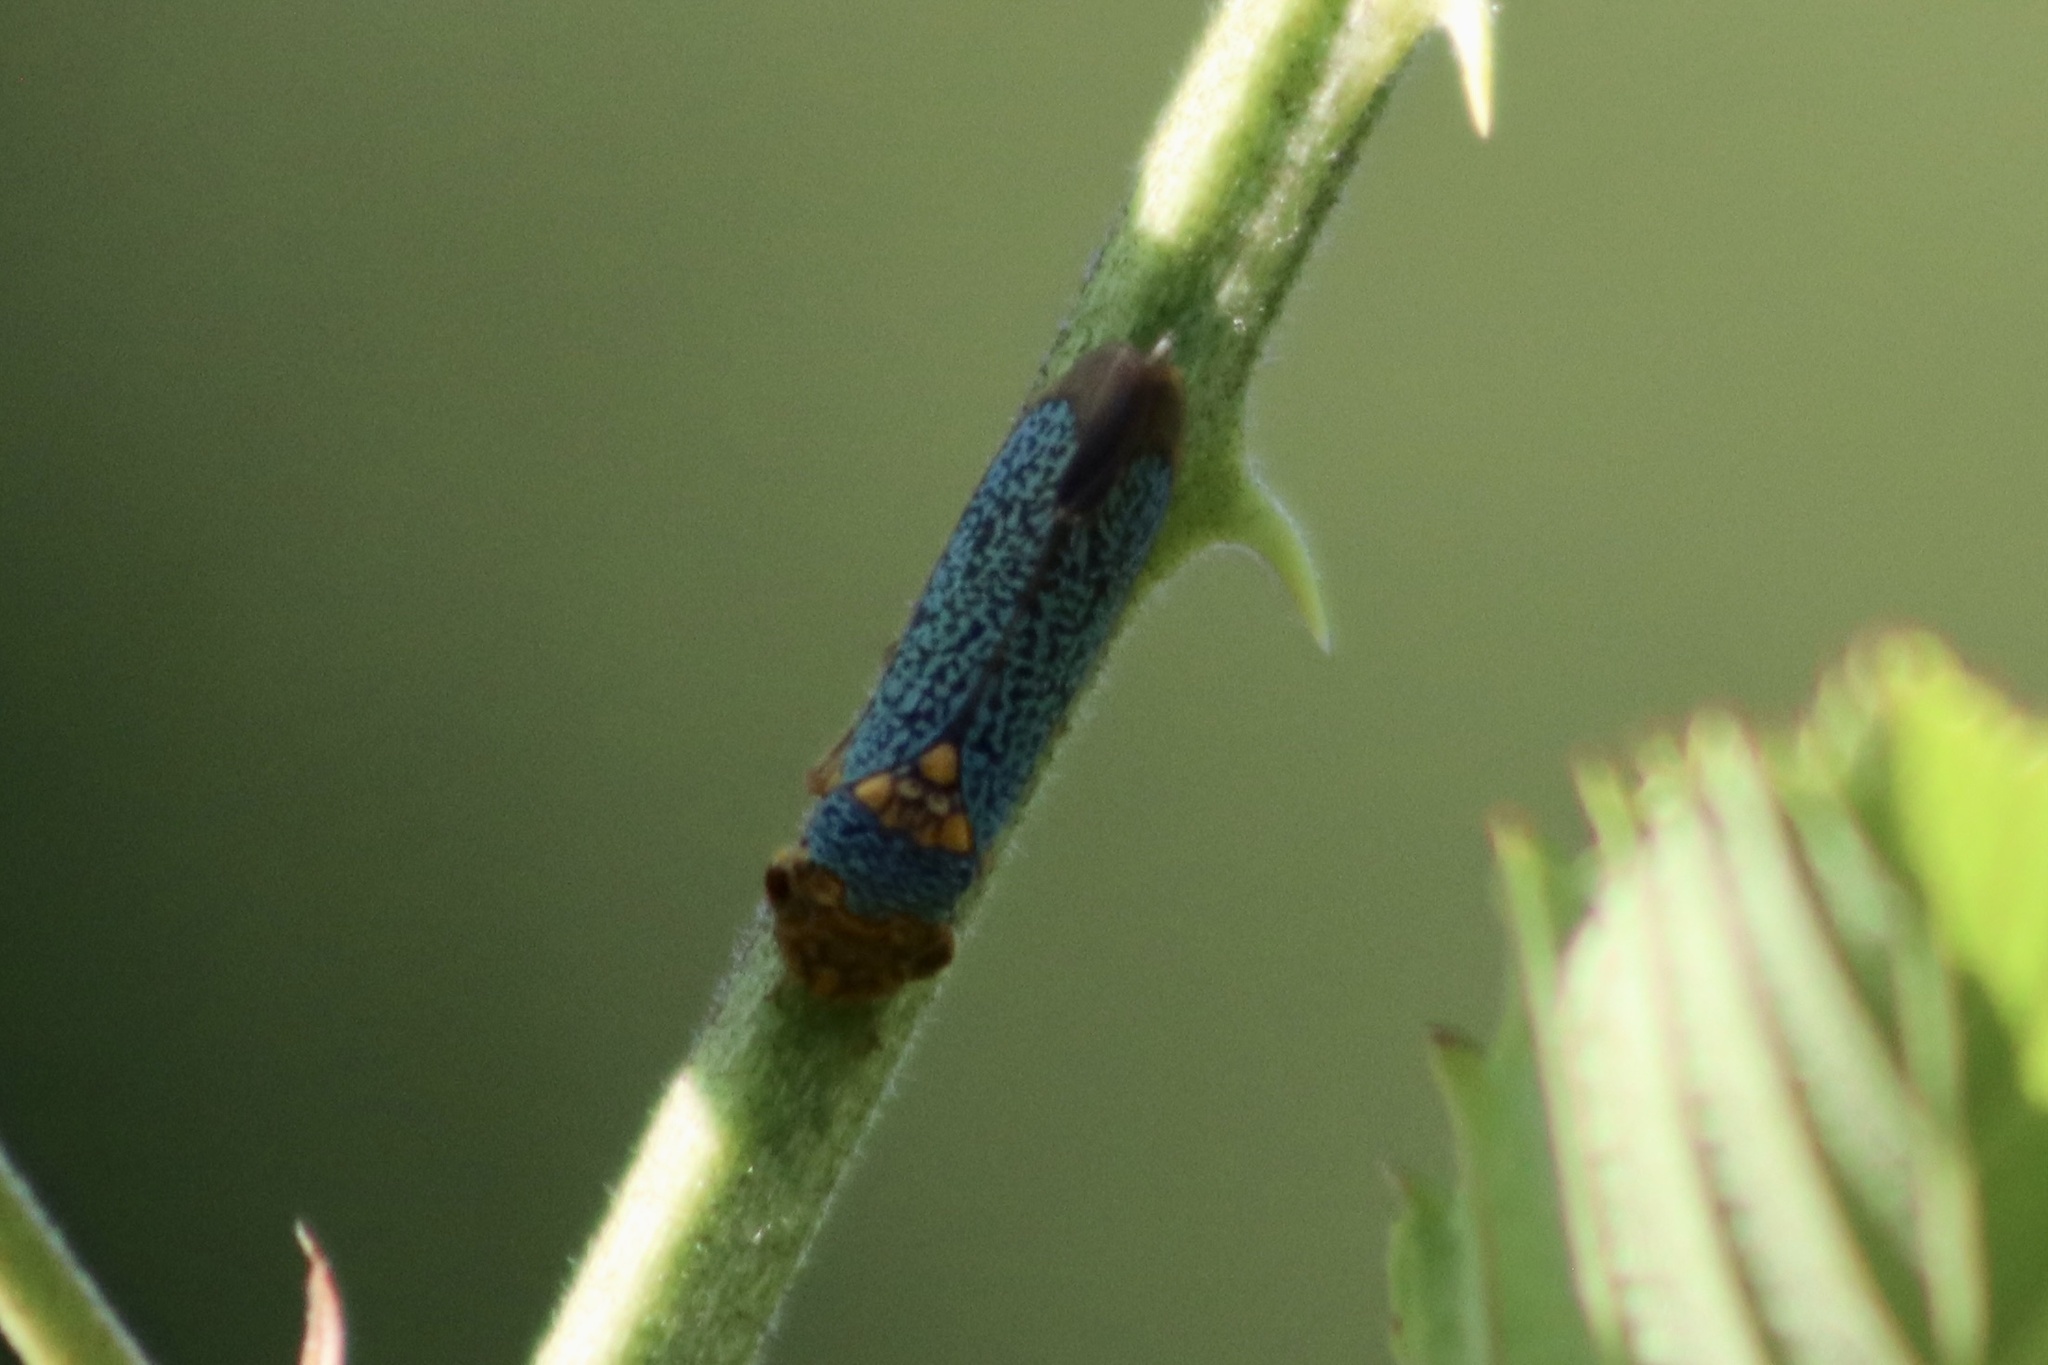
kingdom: Animalia
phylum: Arthropoda
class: Insecta
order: Hemiptera
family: Cicadellidae
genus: Oncometopia
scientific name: Oncometopia orbona
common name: Broad-headed sharpshooter
